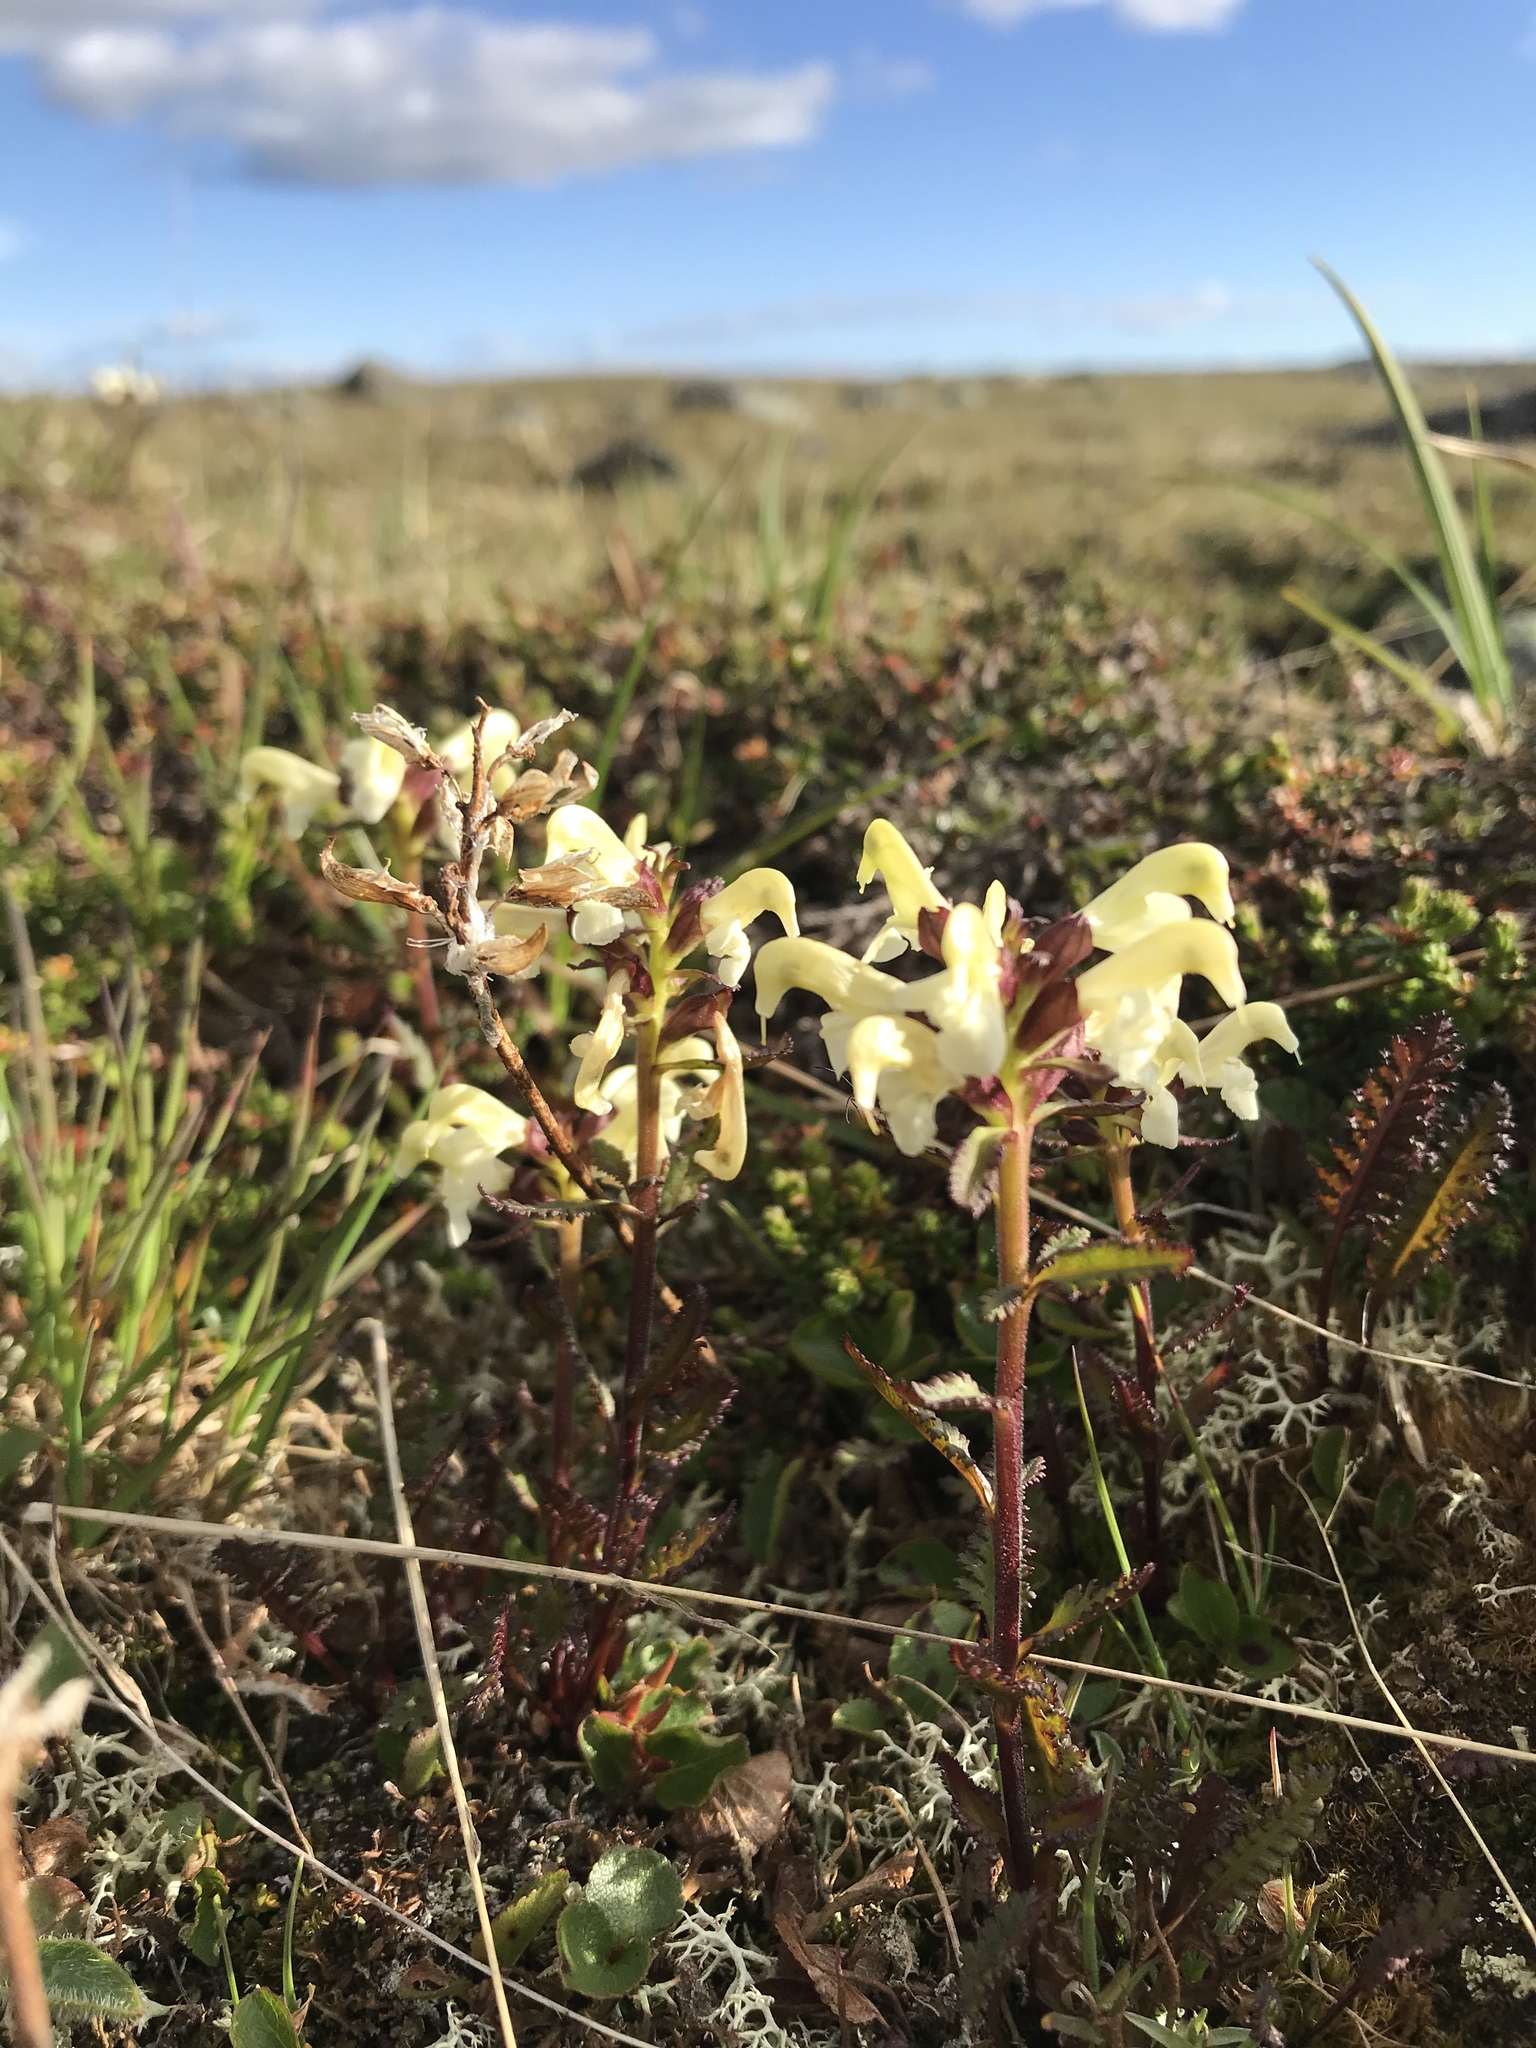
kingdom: Plantae
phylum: Tracheophyta
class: Magnoliopsida
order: Lamiales
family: Orobanchaceae
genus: Pedicularis
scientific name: Pedicularis lapponica
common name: Lapland lousewort
